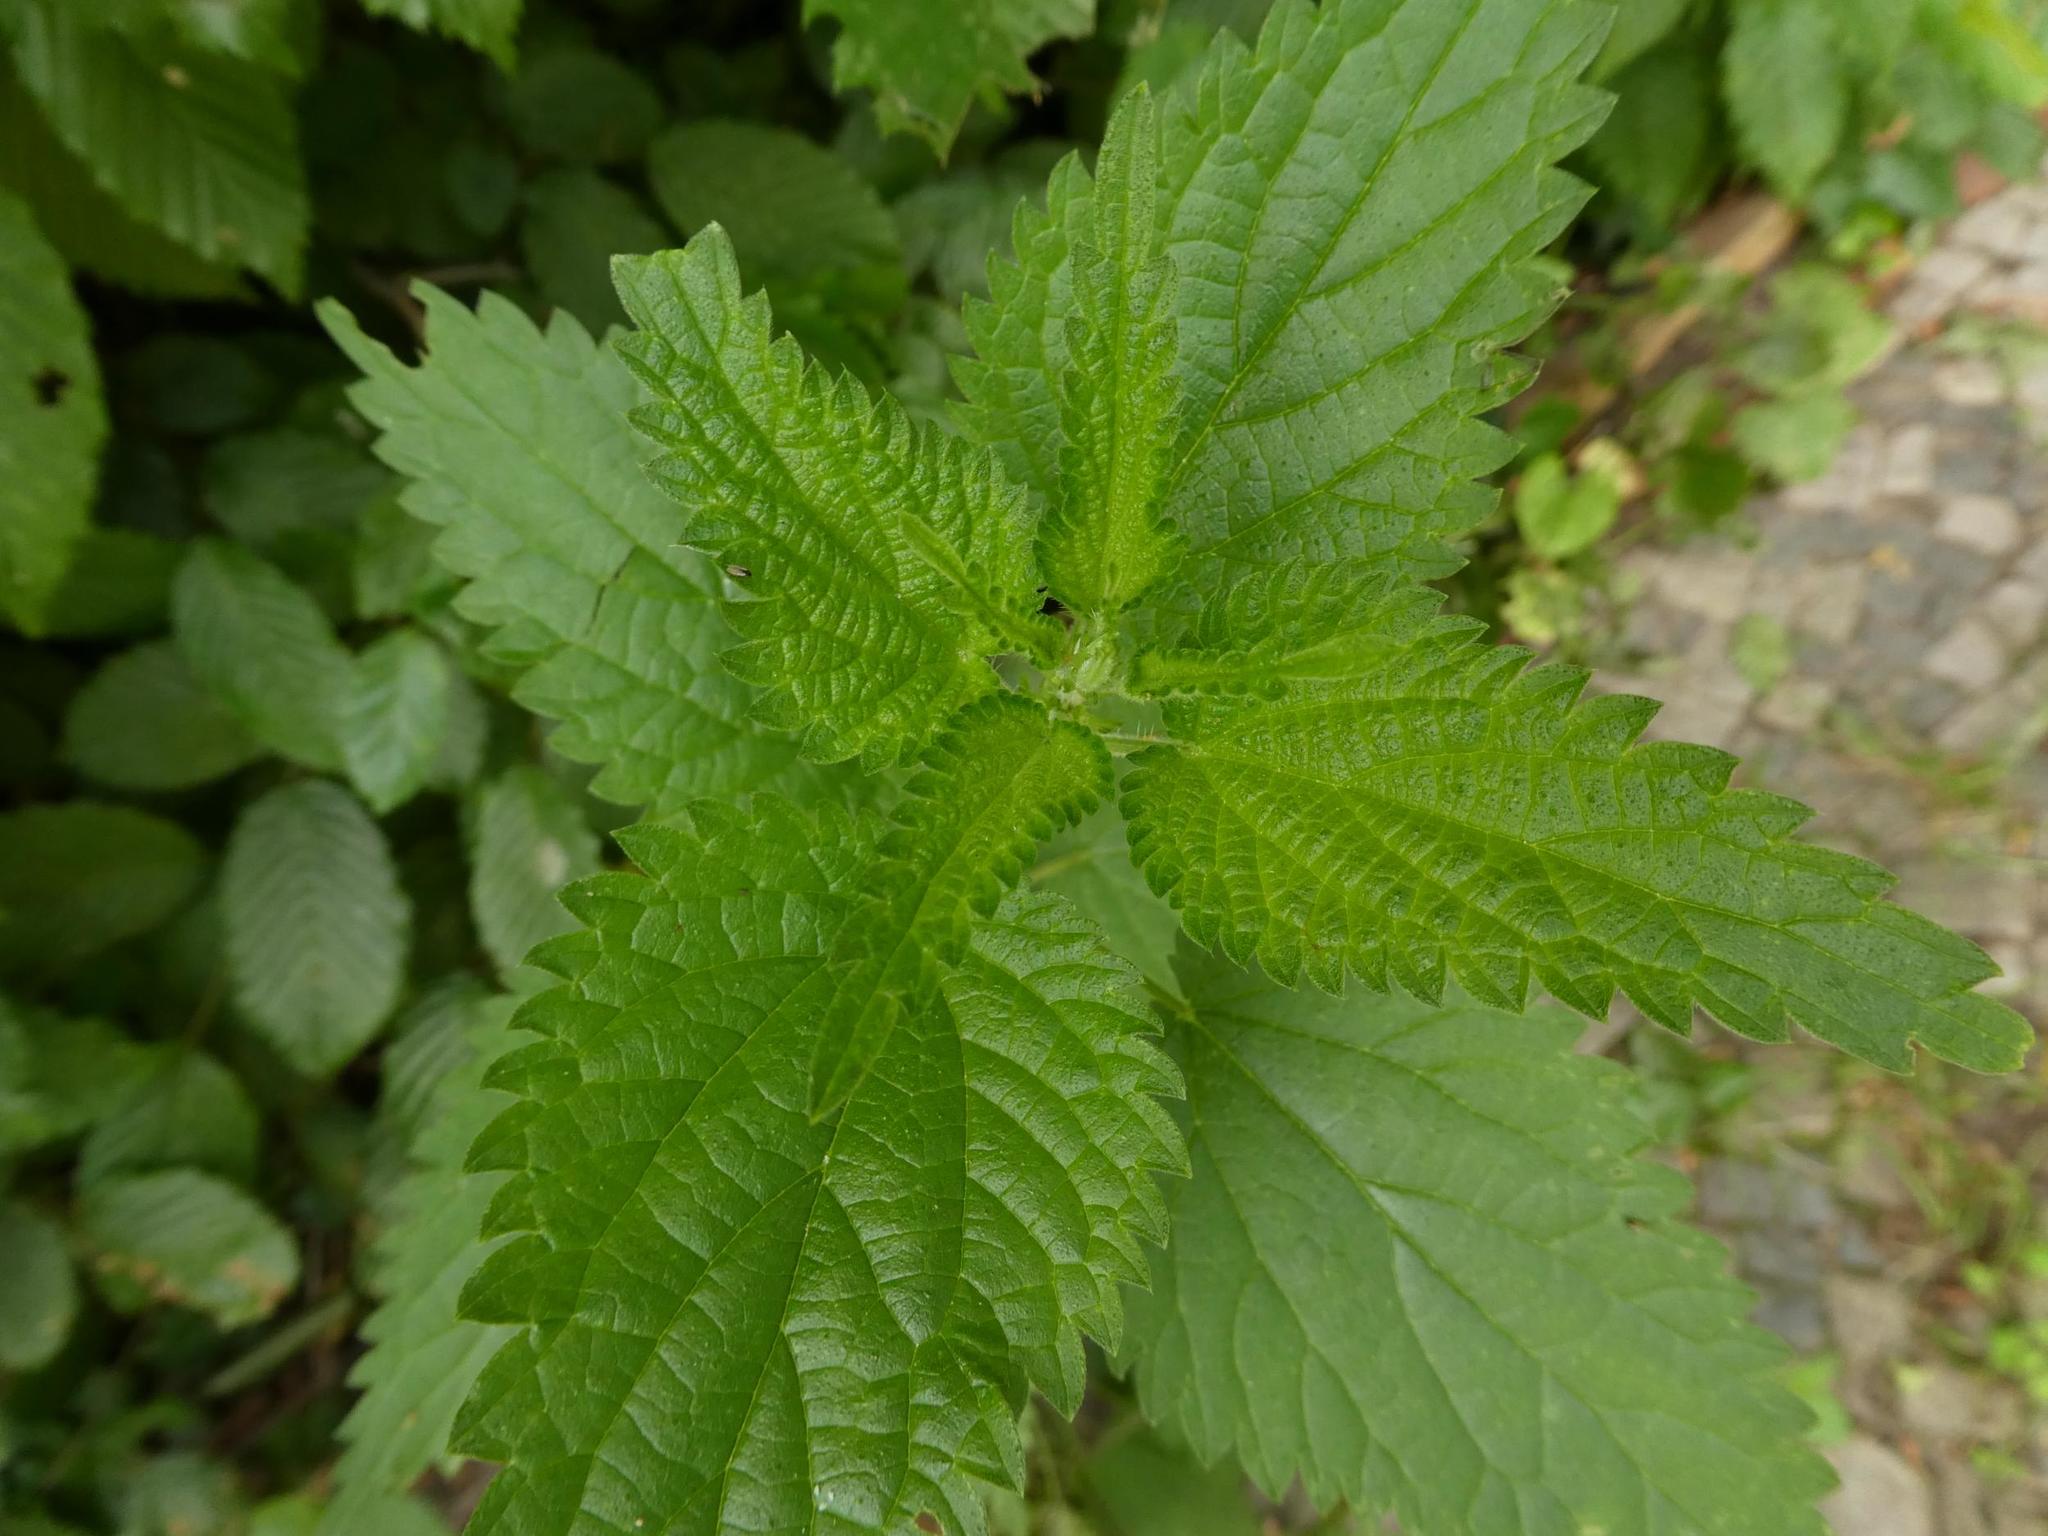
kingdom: Plantae
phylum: Tracheophyta
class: Magnoliopsida
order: Rosales
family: Urticaceae
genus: Urtica
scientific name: Urtica dioica
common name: Common nettle
